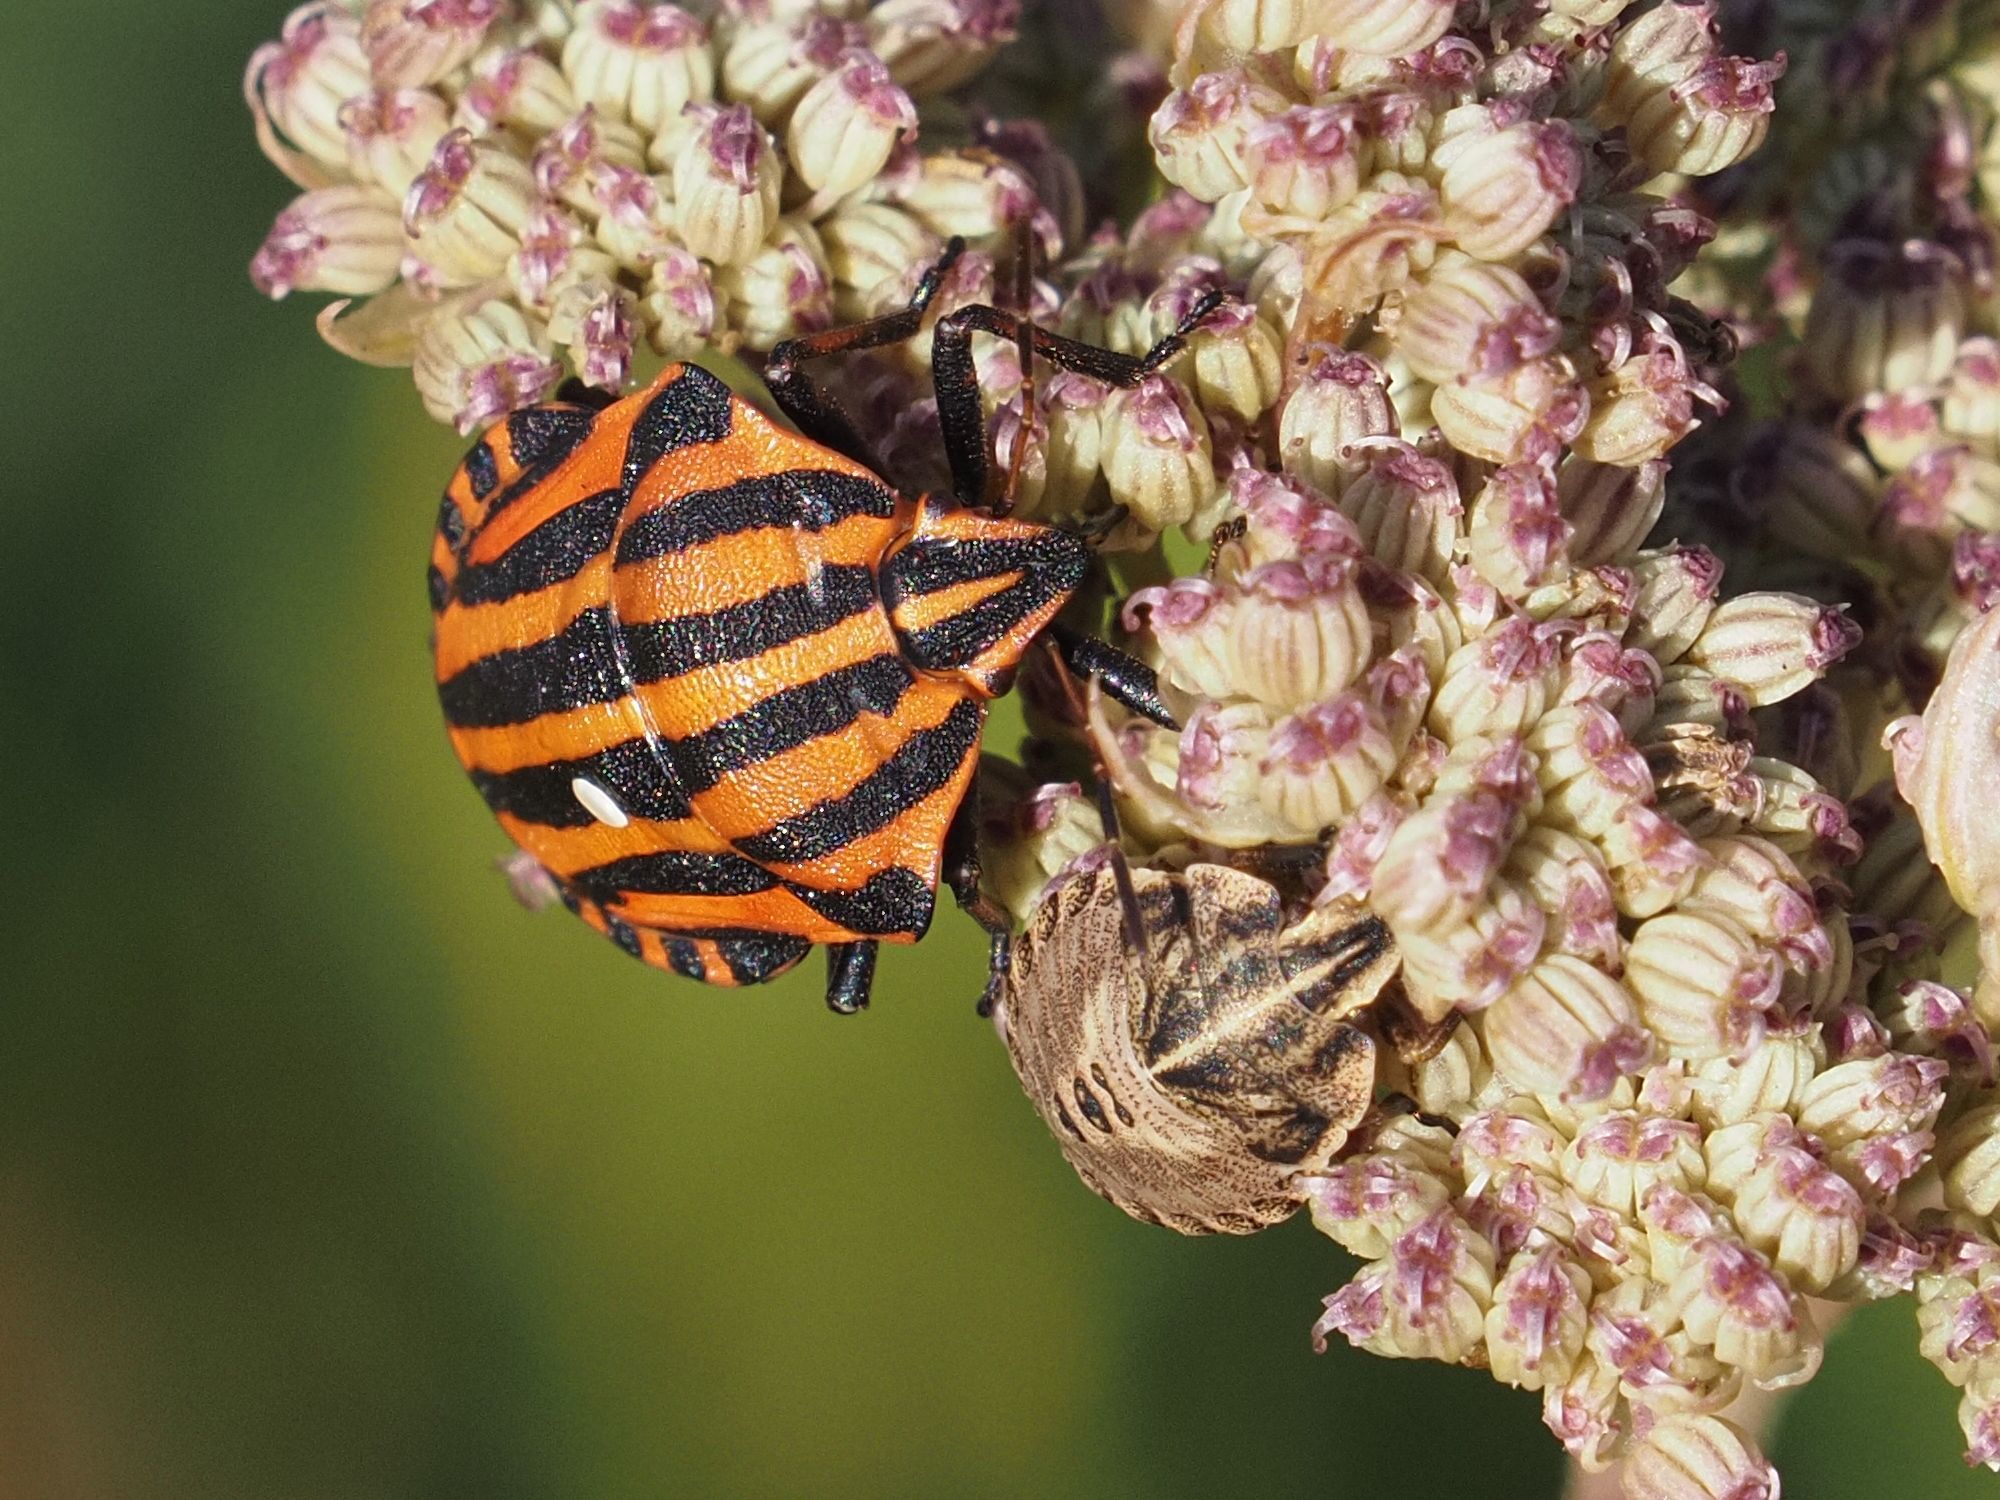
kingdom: Animalia
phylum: Arthropoda
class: Insecta
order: Hemiptera
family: Pentatomidae
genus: Graphosoma
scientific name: Graphosoma italicum
